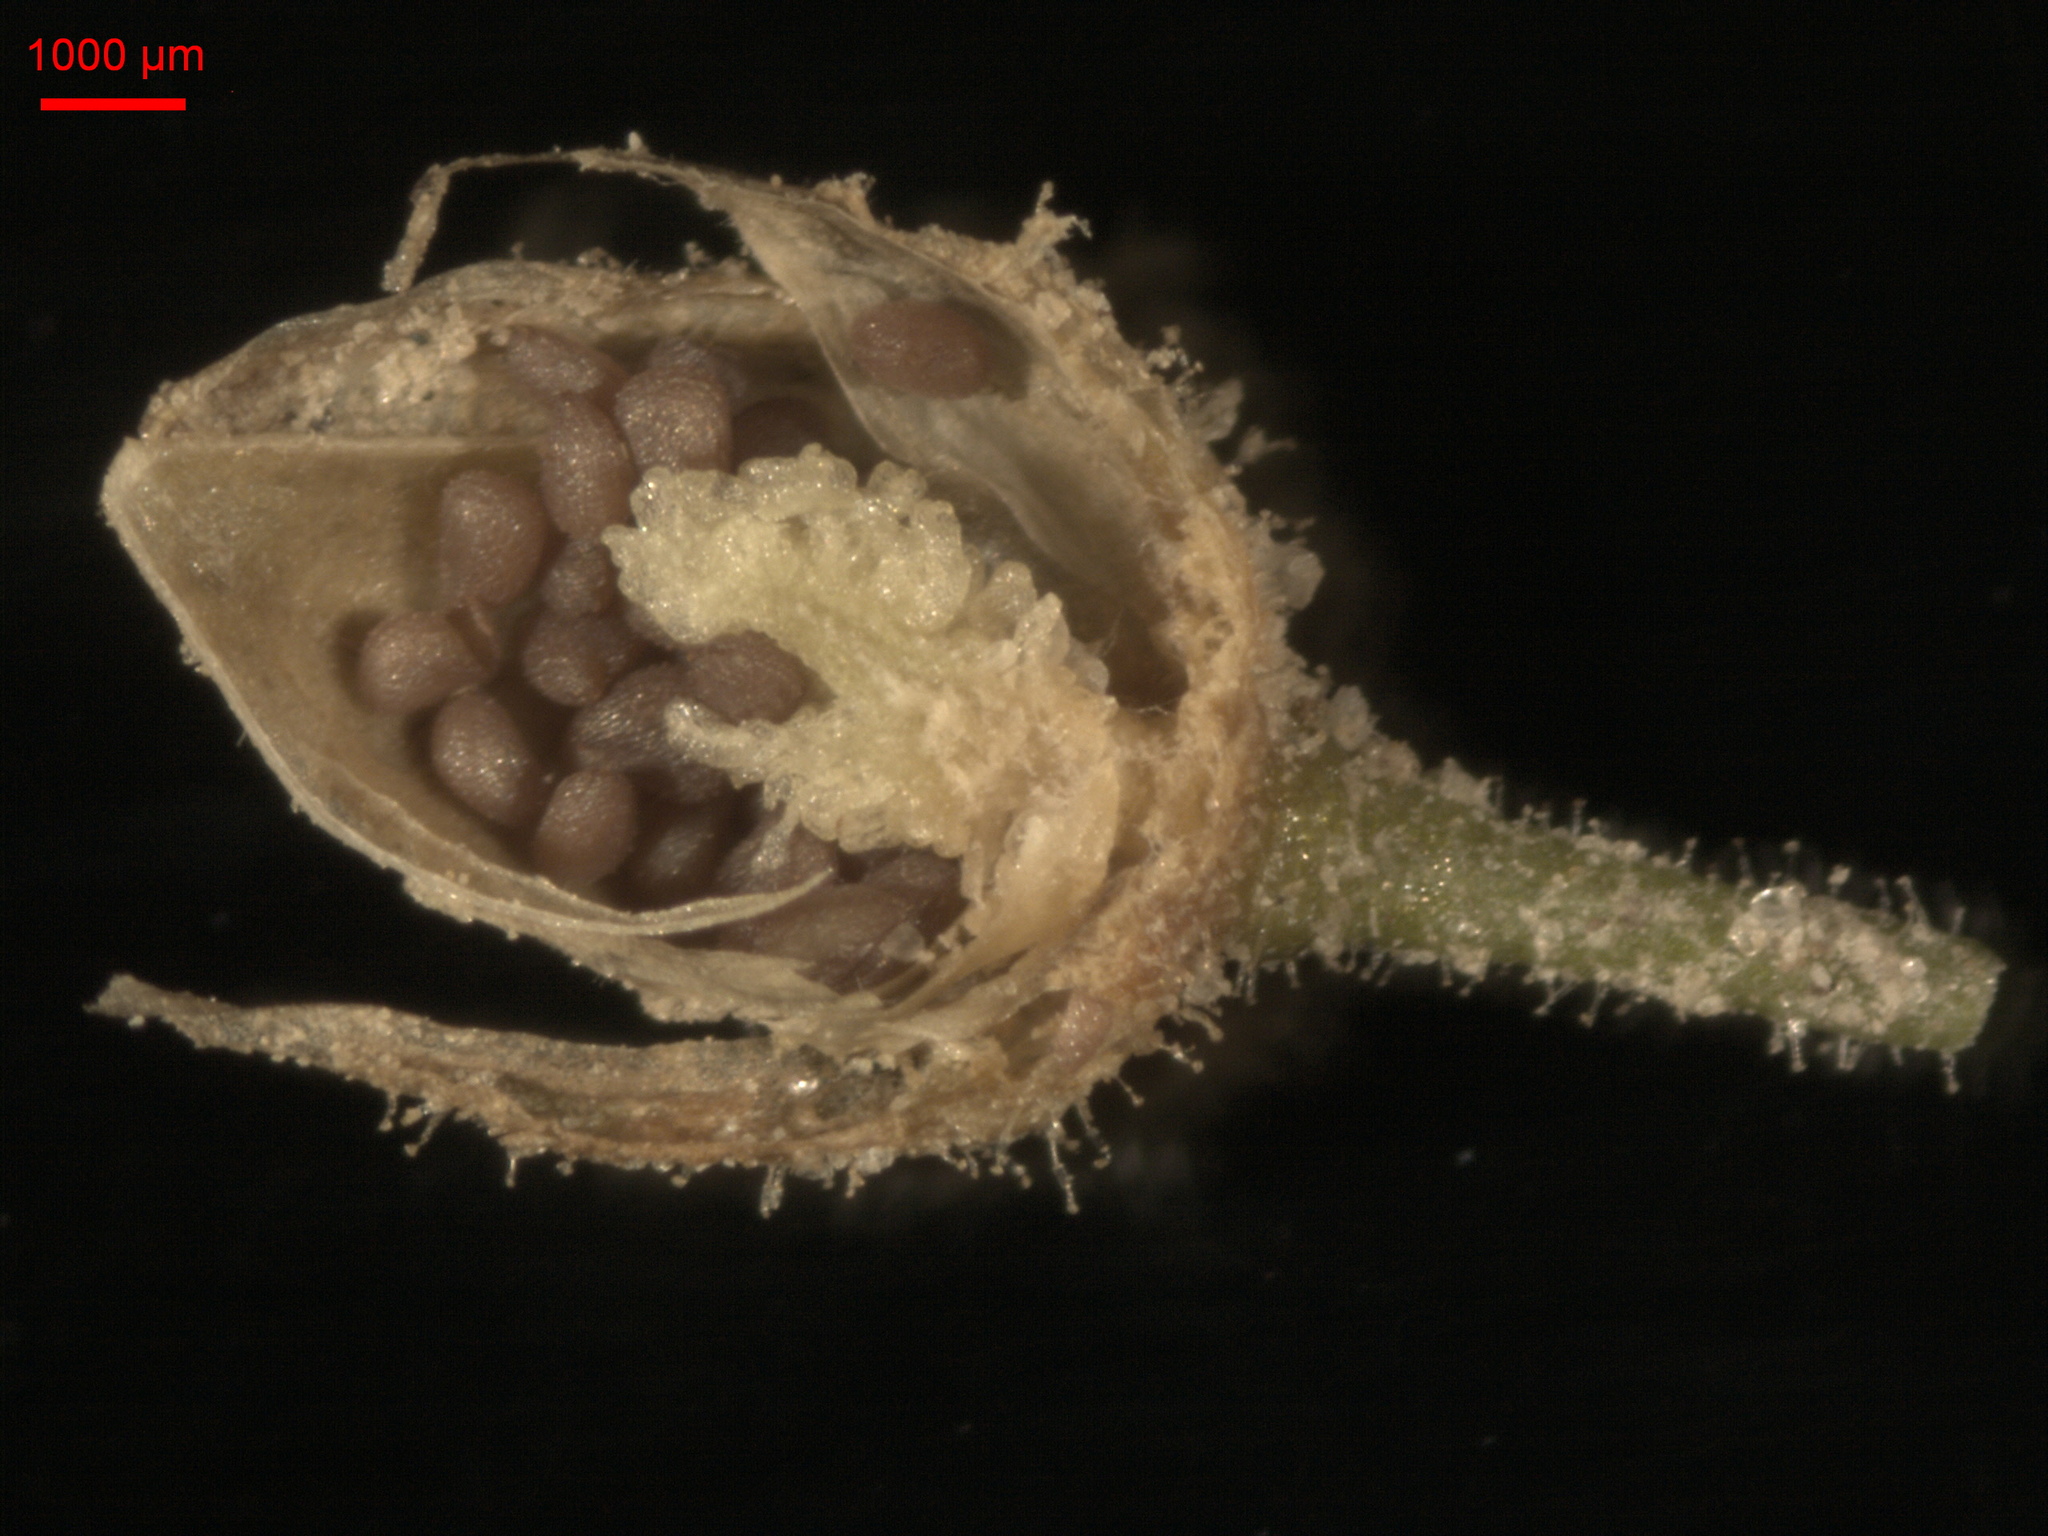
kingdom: Plantae
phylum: Tracheophyta
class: Magnoliopsida
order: Caryophyllales
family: Caryophyllaceae
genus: Spergularia
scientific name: Spergularia rubra
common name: Red sand-spurrey
